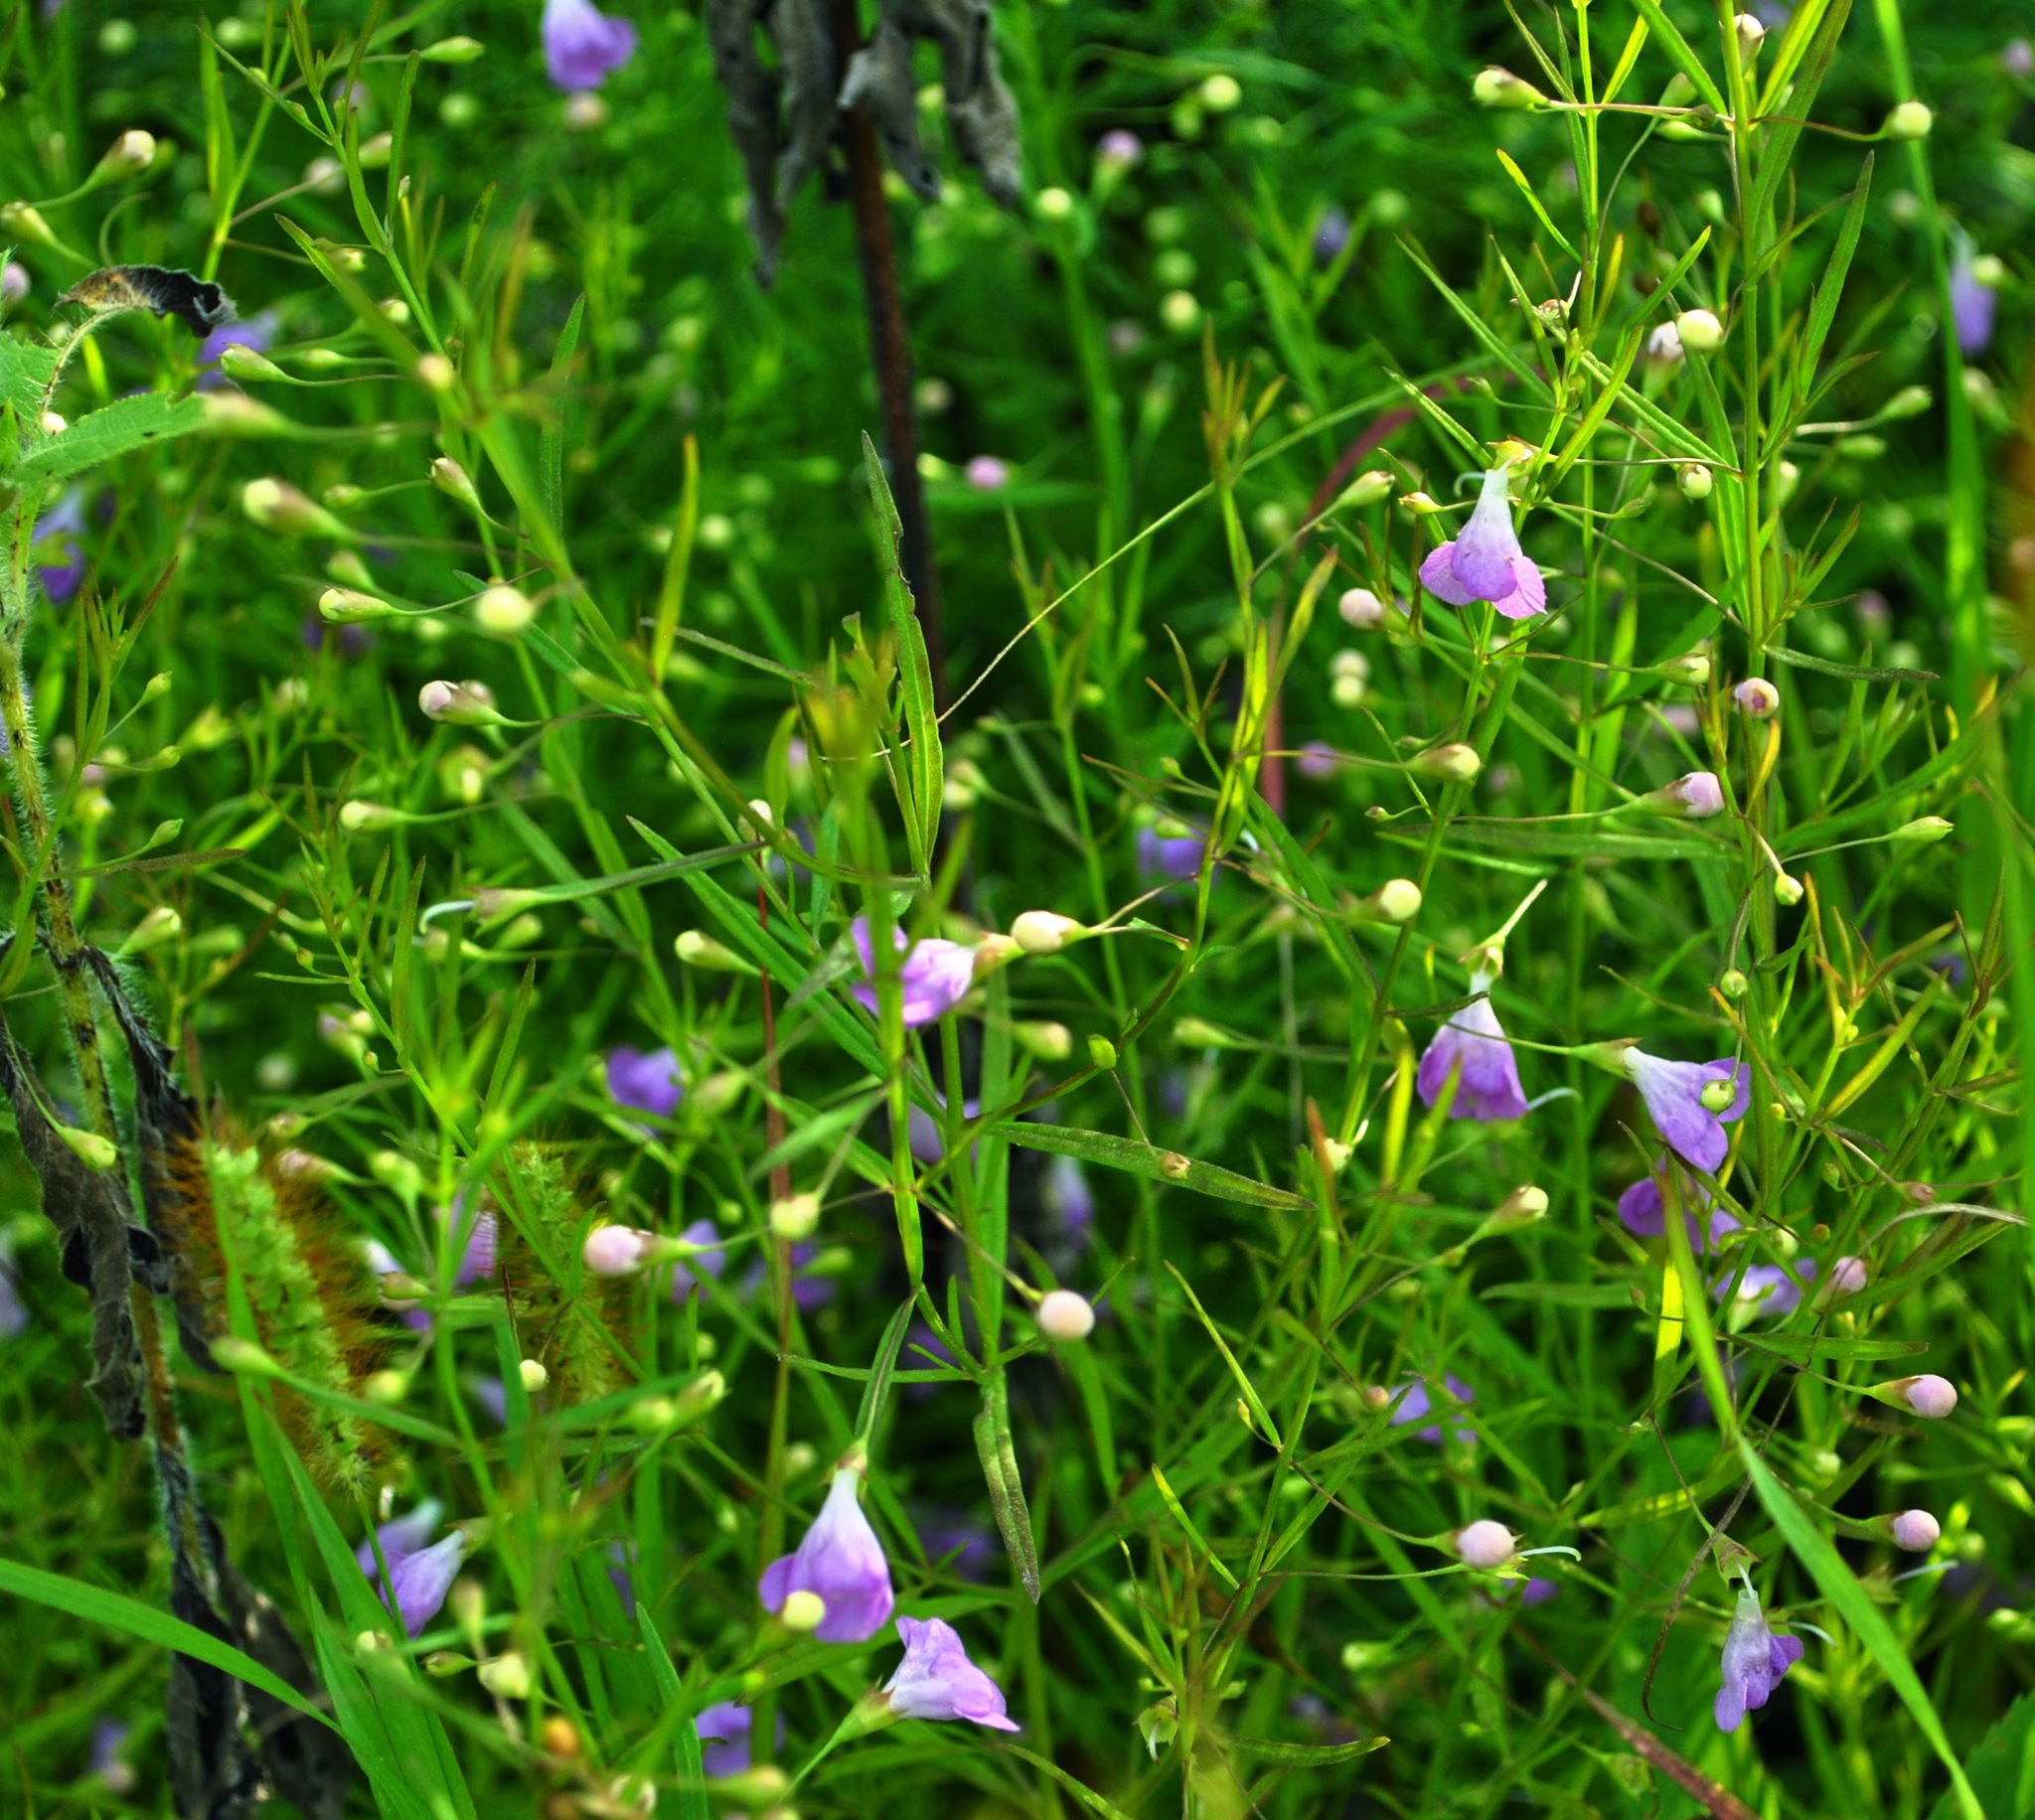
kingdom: Plantae
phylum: Tracheophyta
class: Magnoliopsida
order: Lamiales
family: Orobanchaceae
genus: Agalinis
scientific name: Agalinis tenuifolia
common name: Slender agalinis
